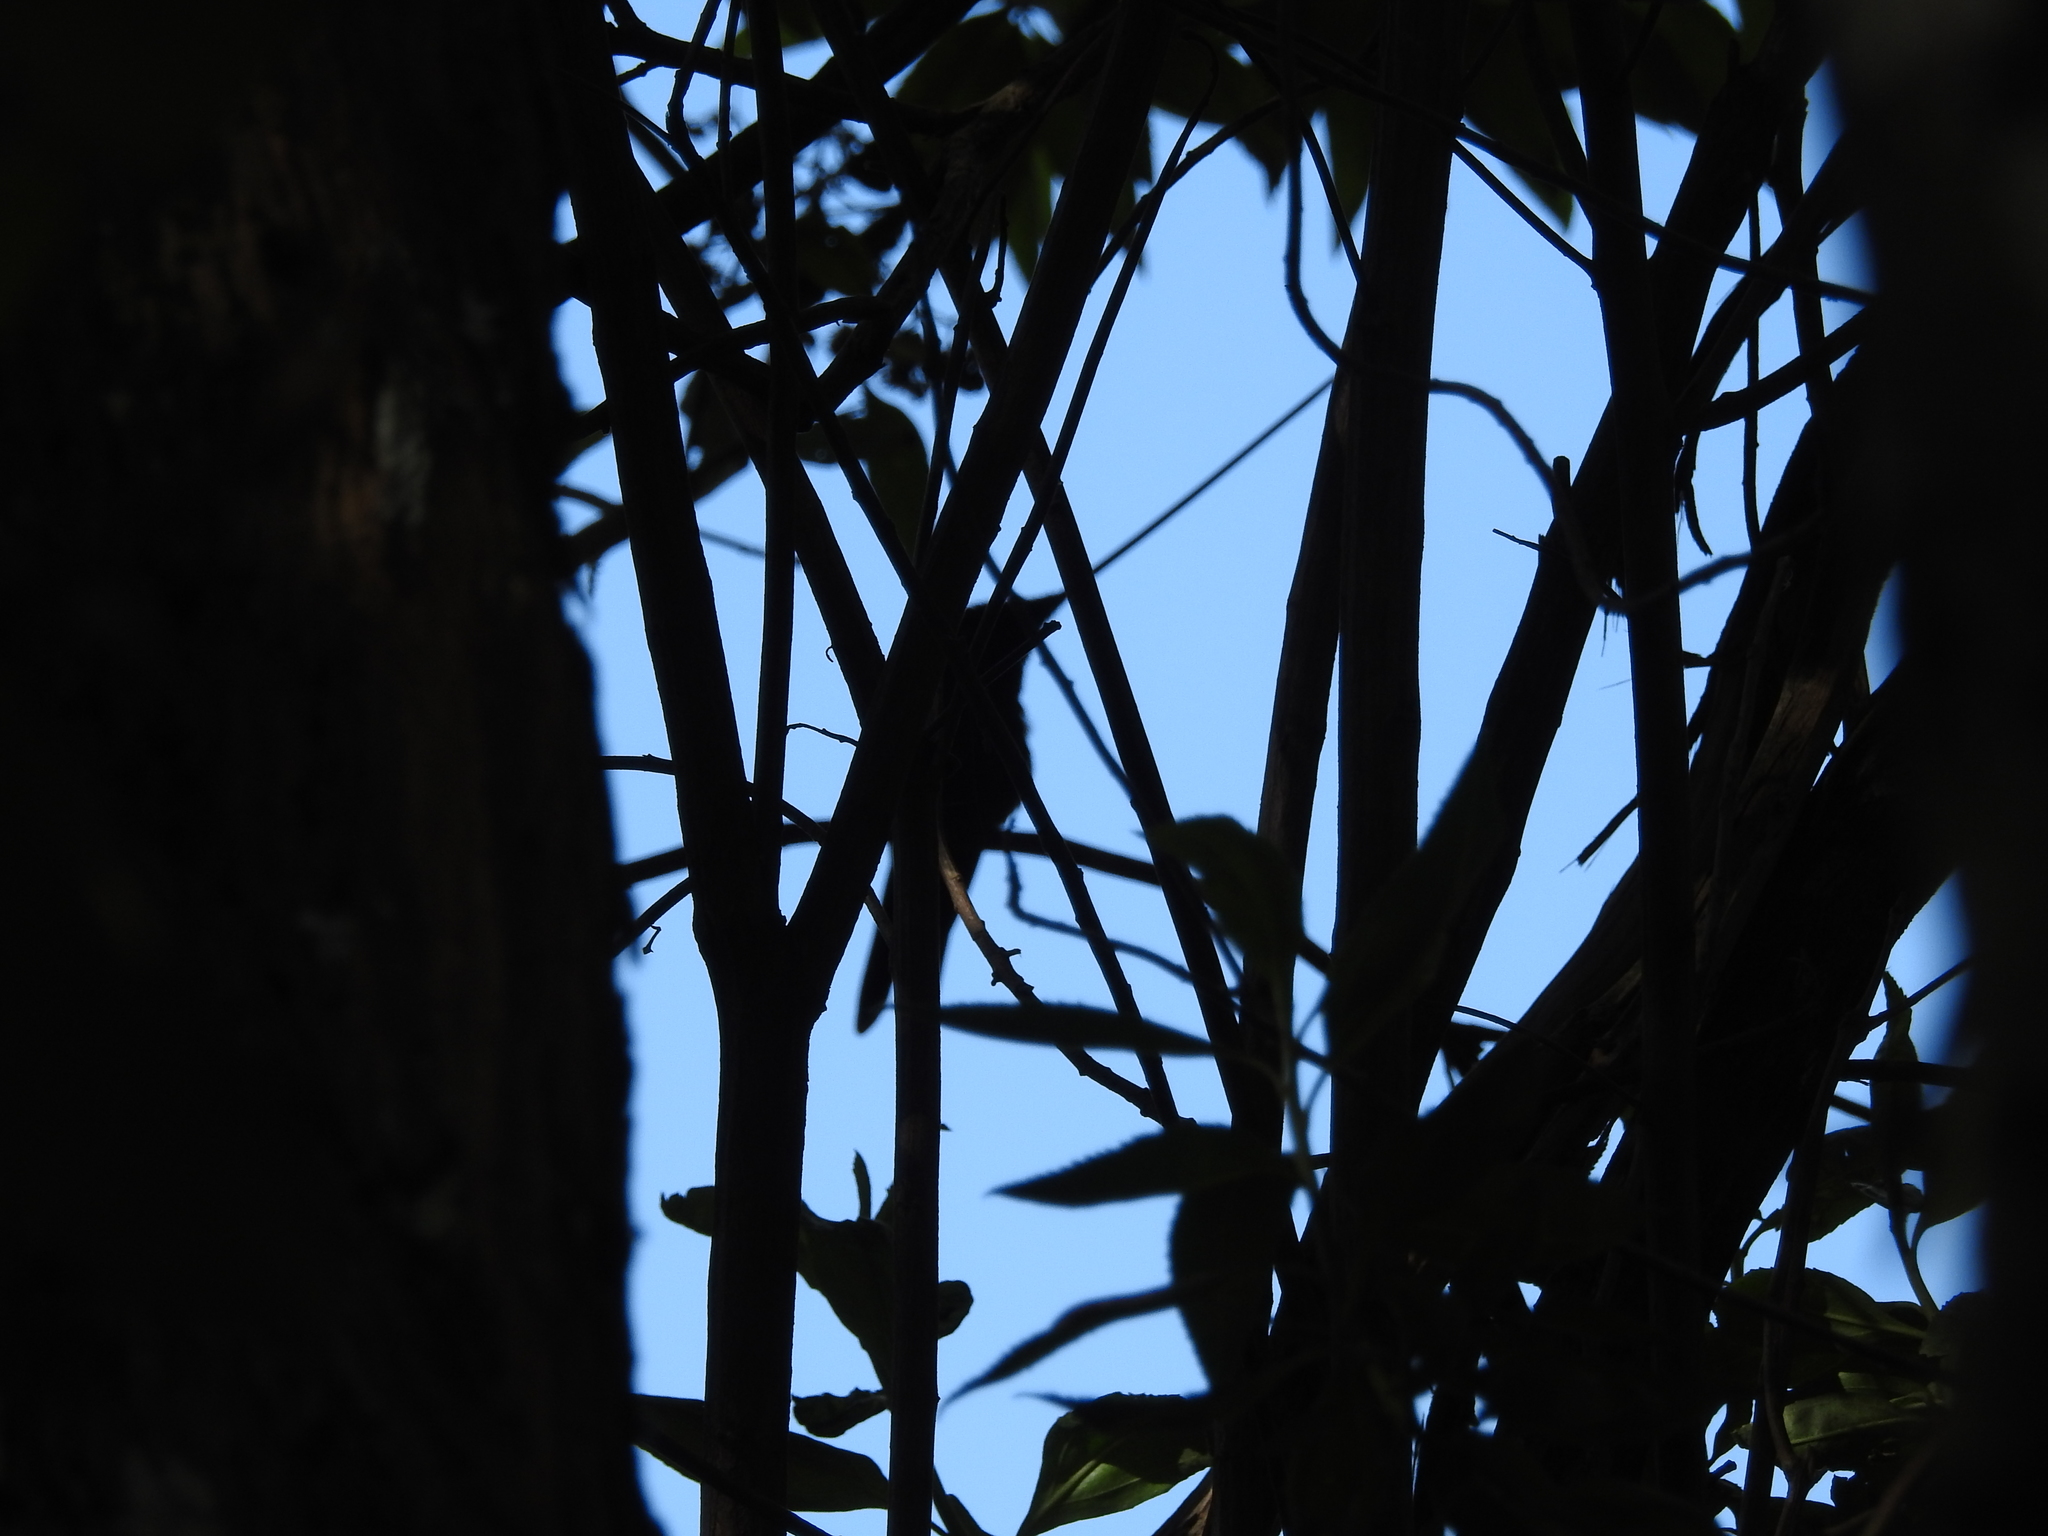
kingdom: Animalia
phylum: Chordata
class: Aves
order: Apodiformes
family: Trochilidae
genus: Ensifera
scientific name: Ensifera ensifera
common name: Sword-billed hummingbird
